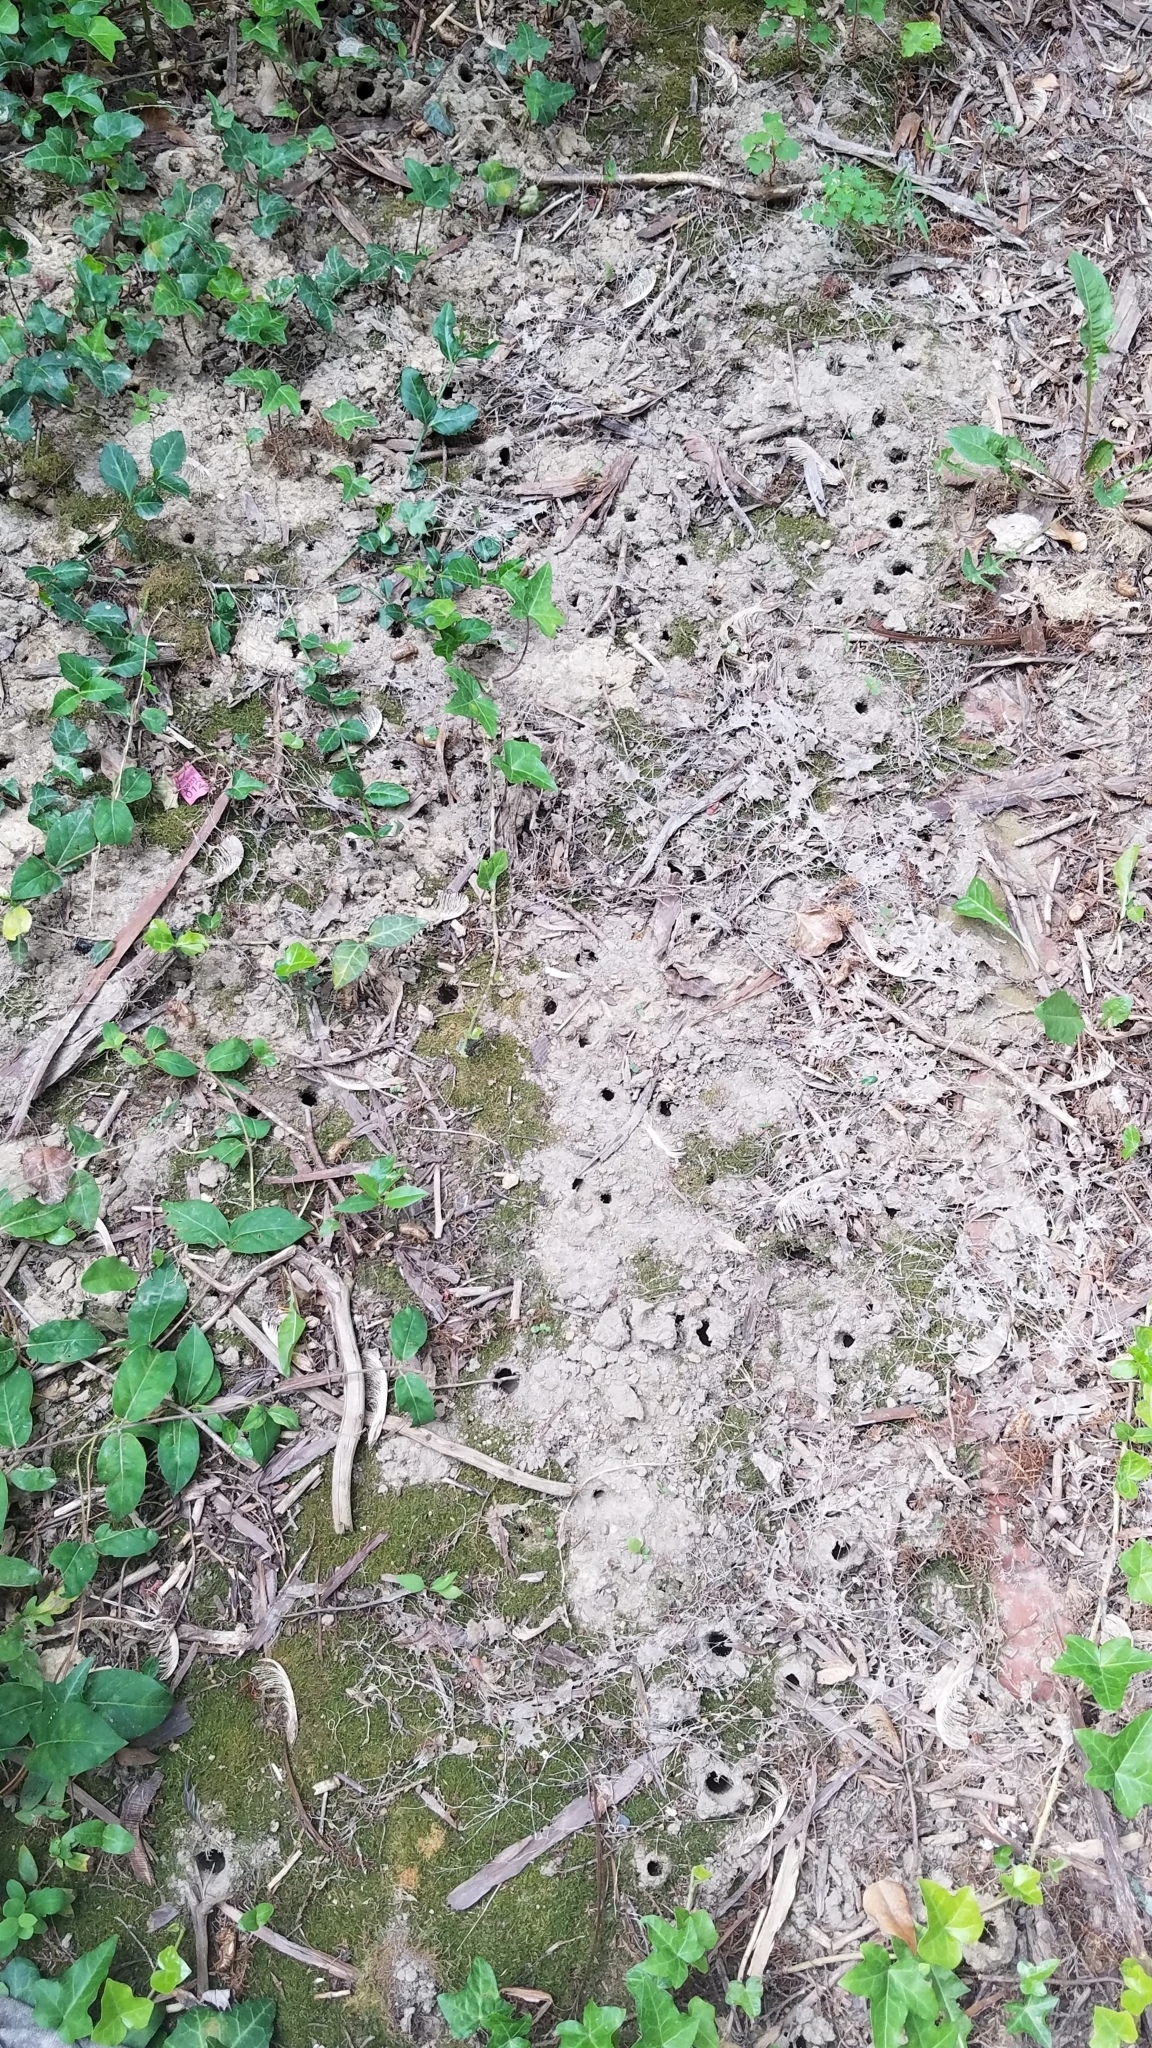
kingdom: Animalia
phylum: Arthropoda
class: Insecta
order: Hemiptera
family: Cicadidae
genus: Magicicada
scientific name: Magicicada
